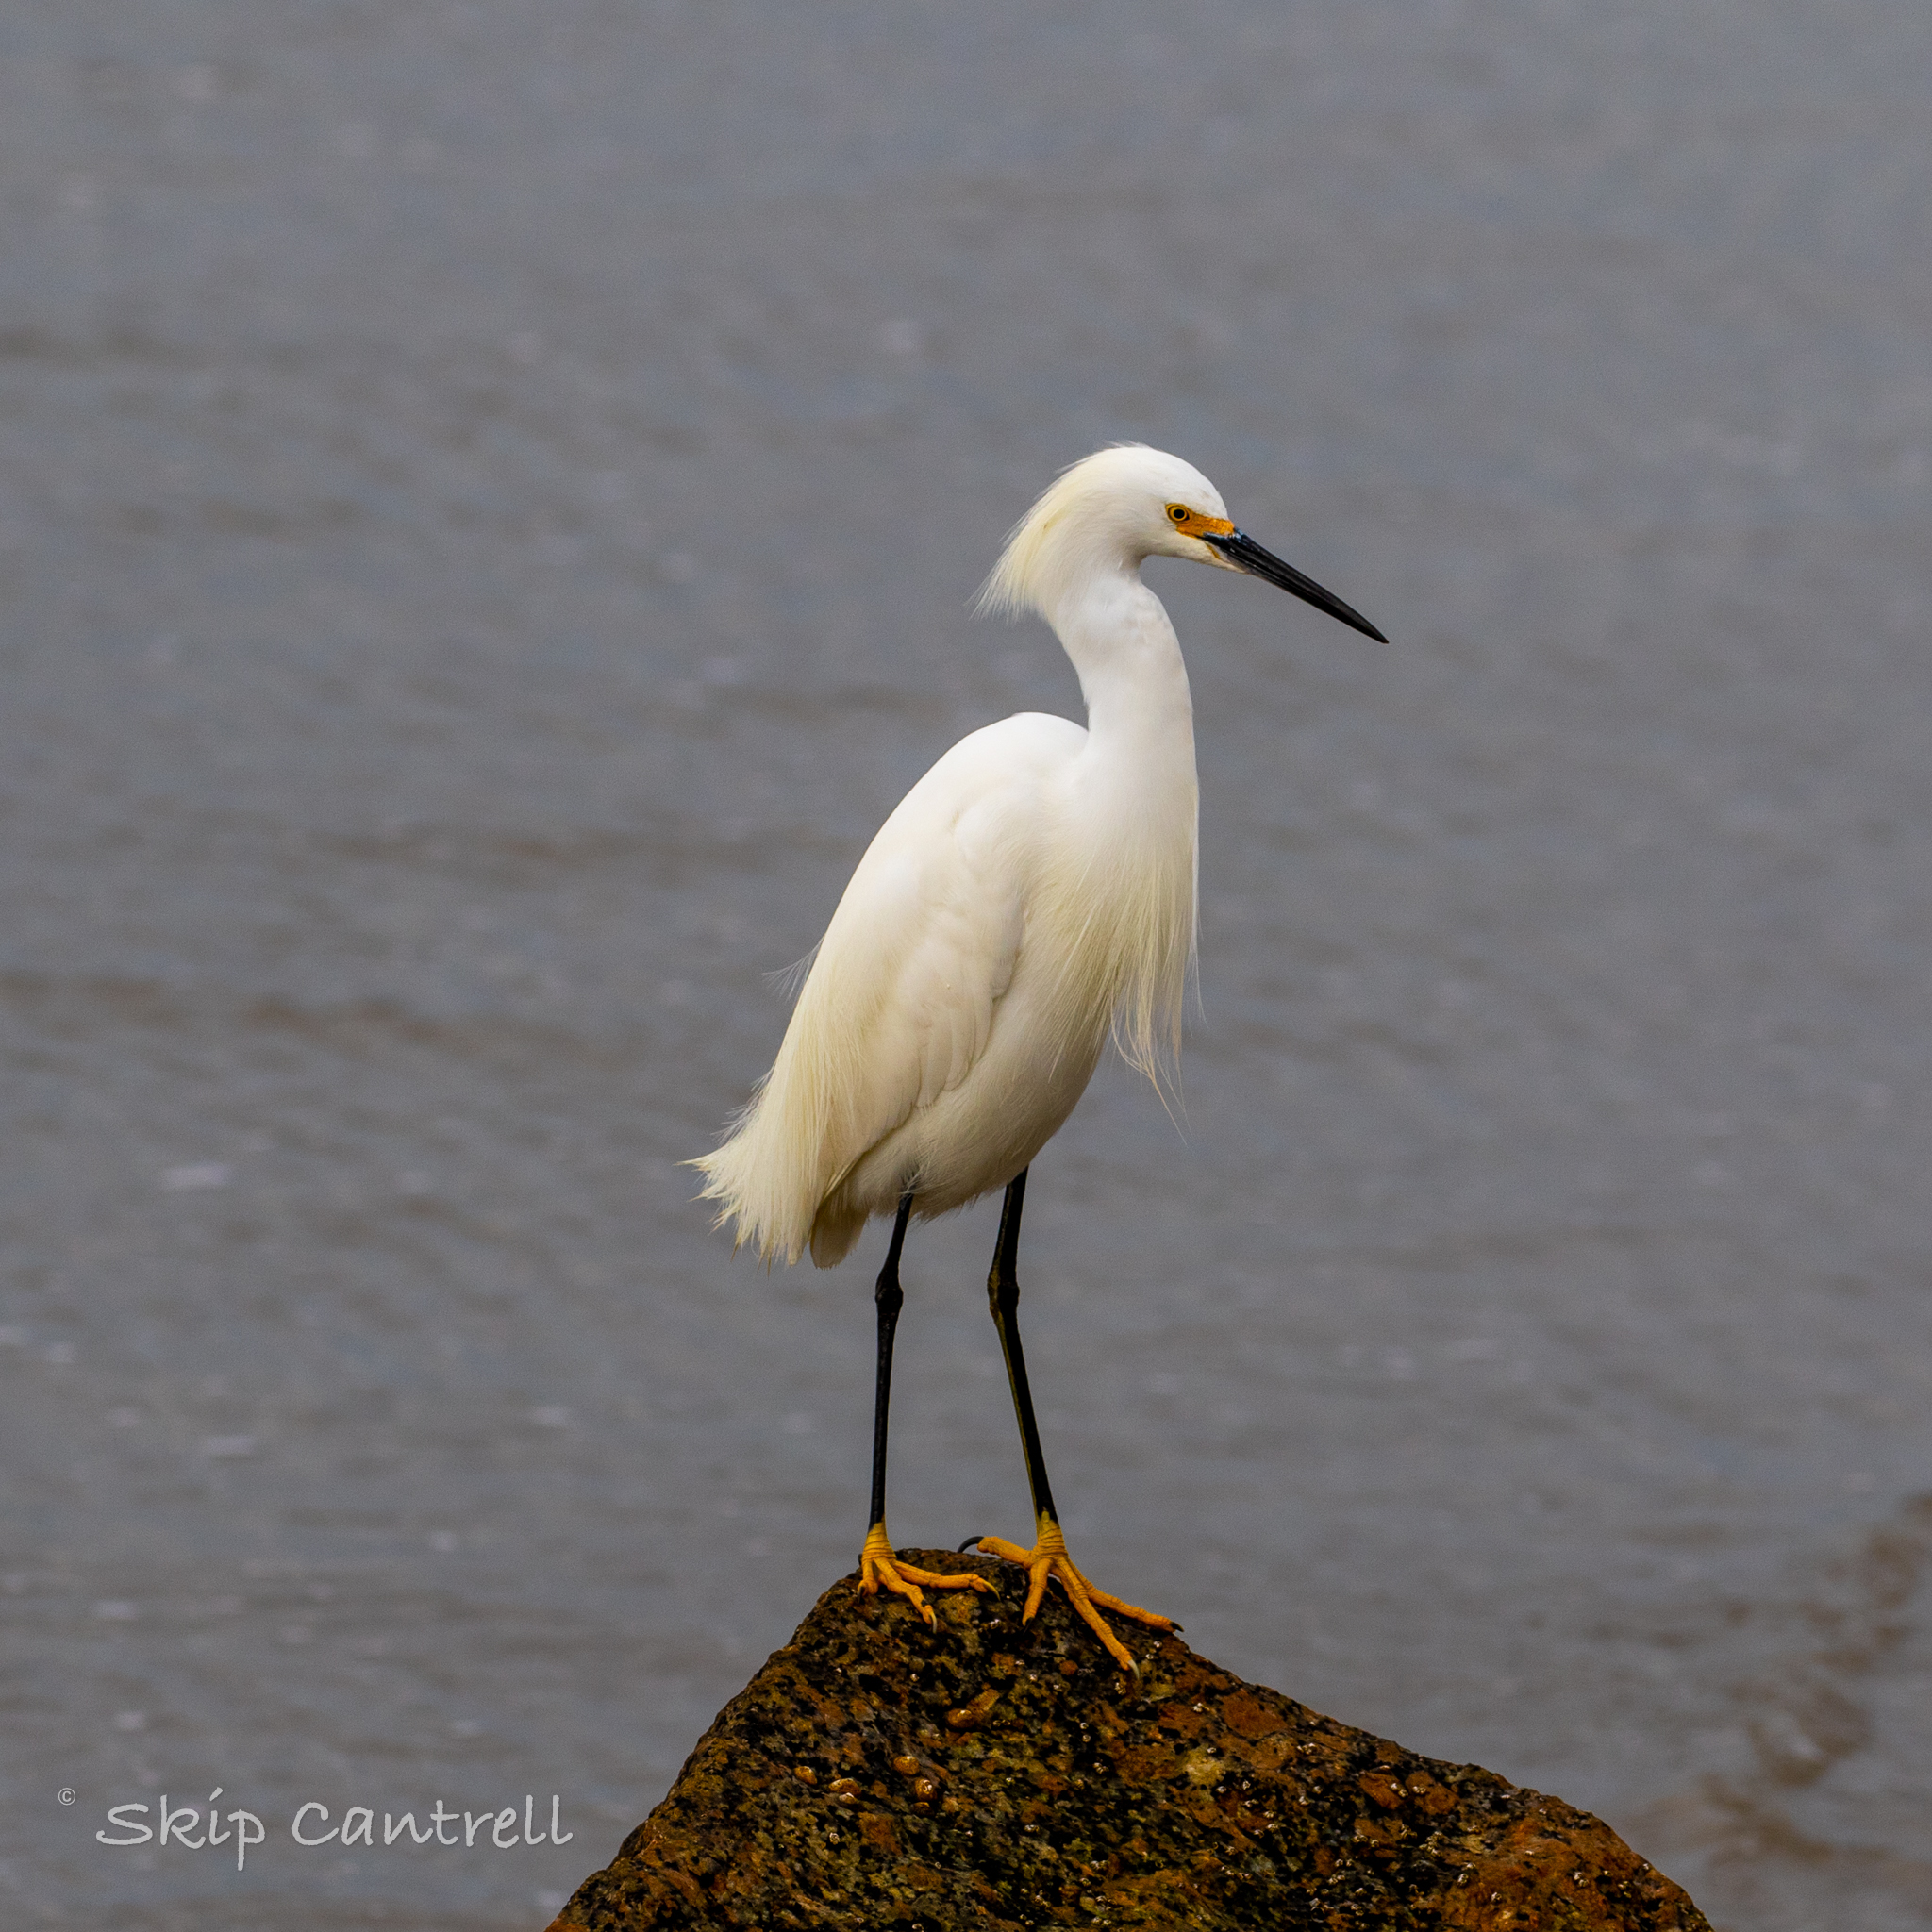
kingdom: Animalia
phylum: Chordata
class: Aves
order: Pelecaniformes
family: Ardeidae
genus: Egretta
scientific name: Egretta thula
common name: Snowy egret
